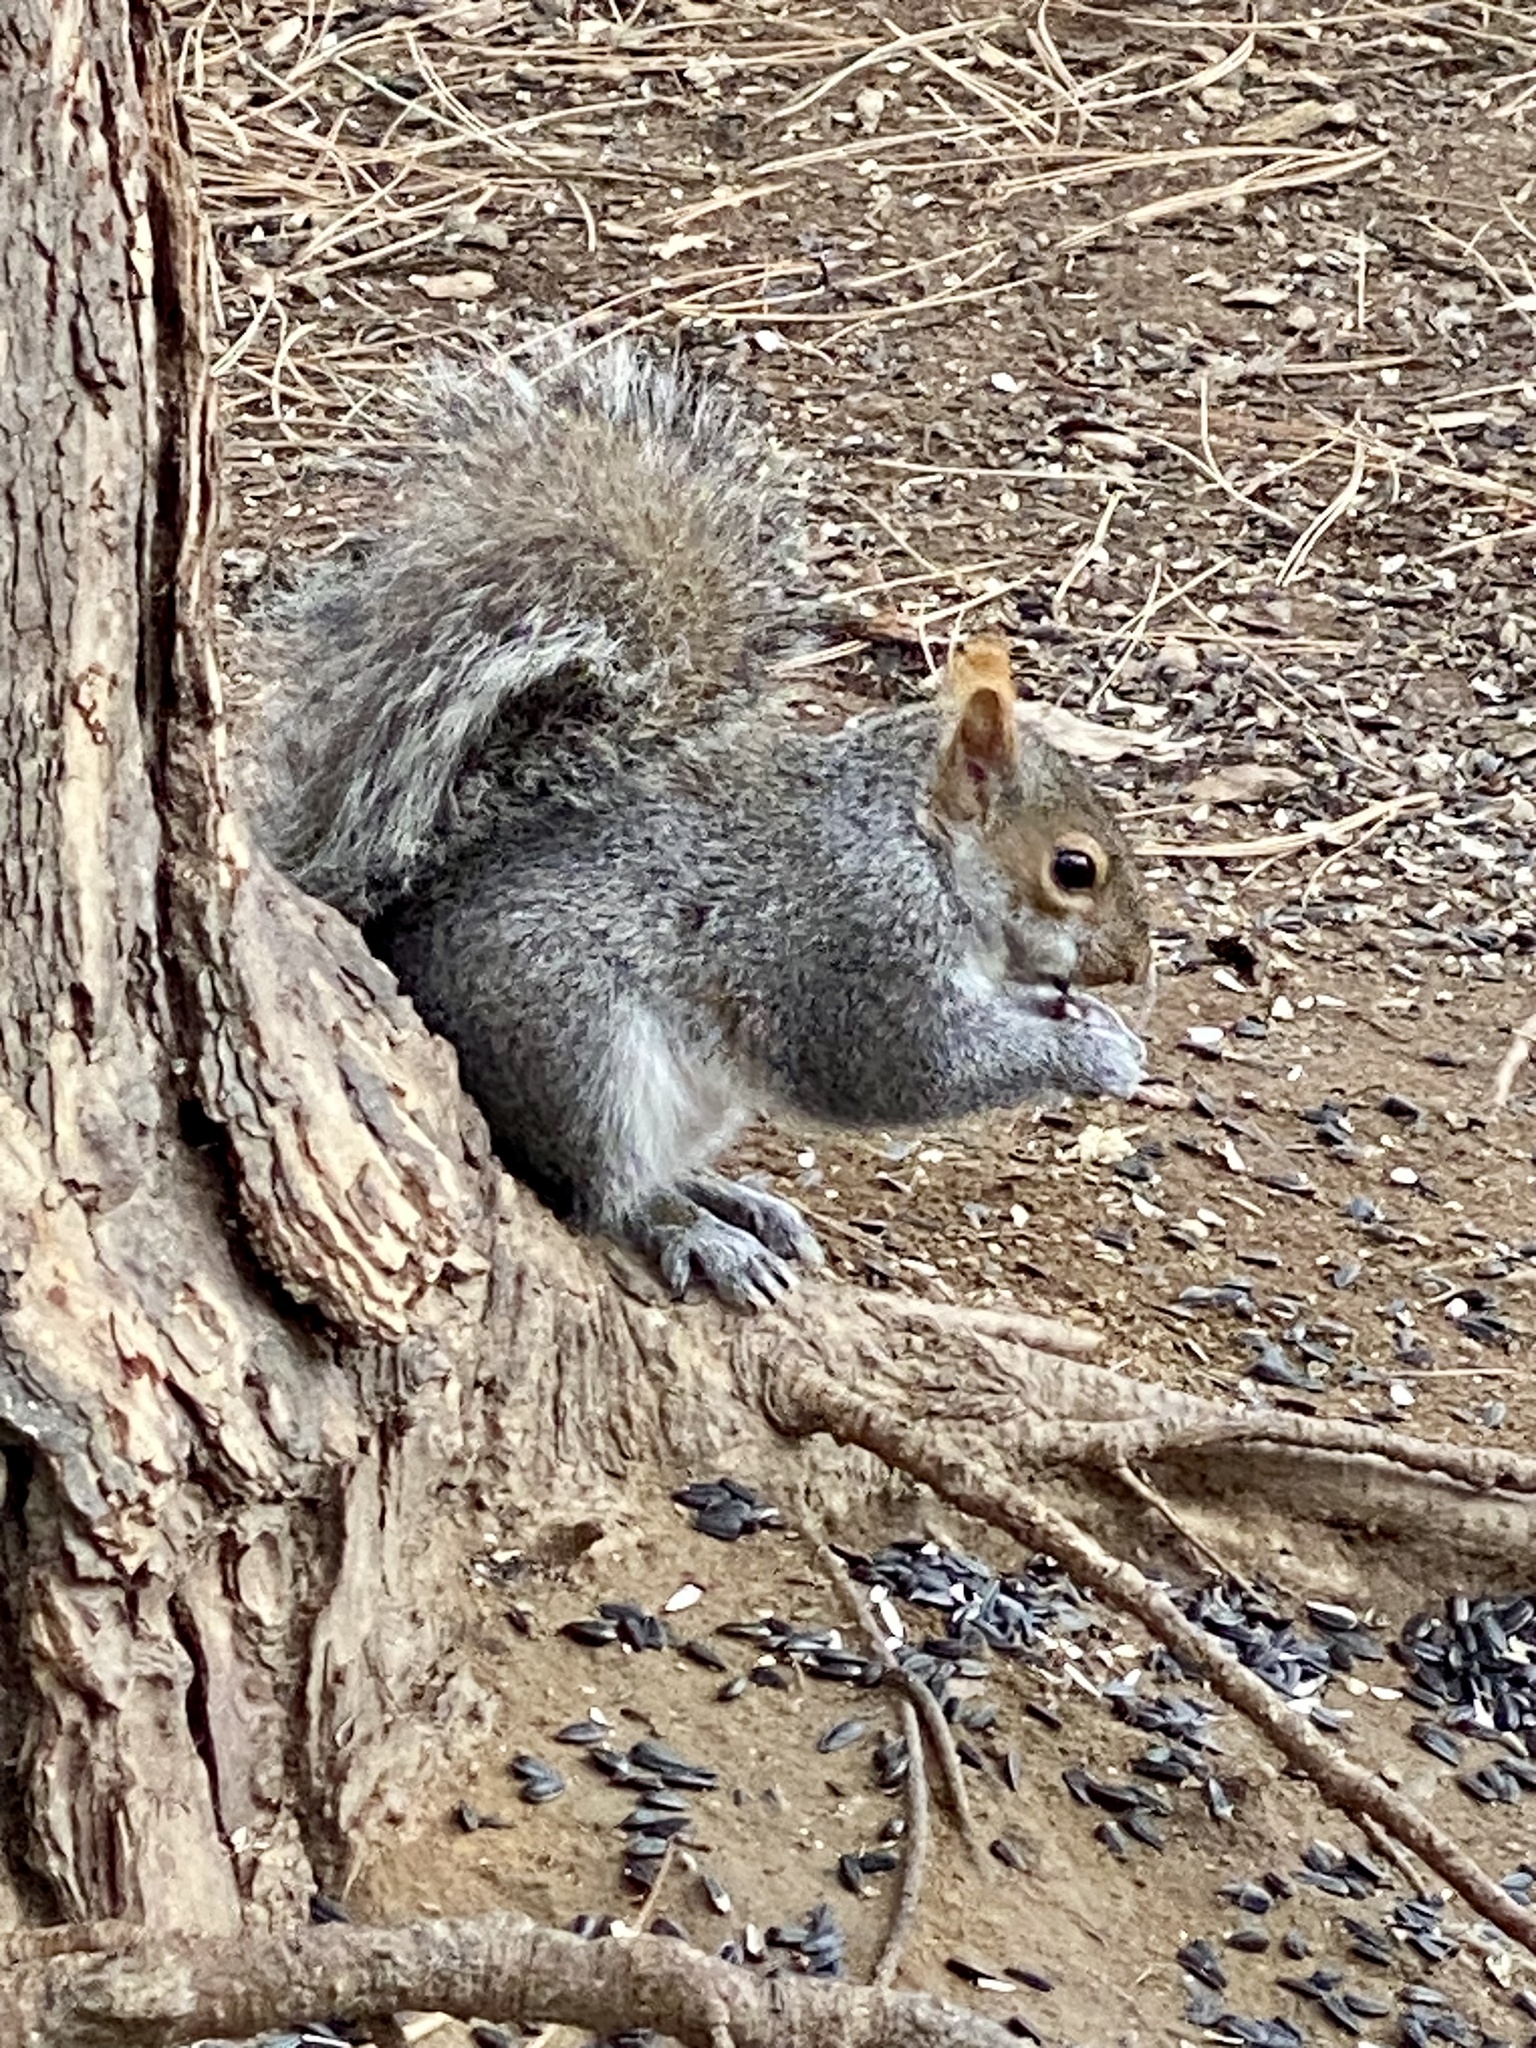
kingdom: Animalia
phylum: Chordata
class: Mammalia
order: Rodentia
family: Sciuridae
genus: Sciurus
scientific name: Sciurus carolinensis
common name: Eastern gray squirrel
